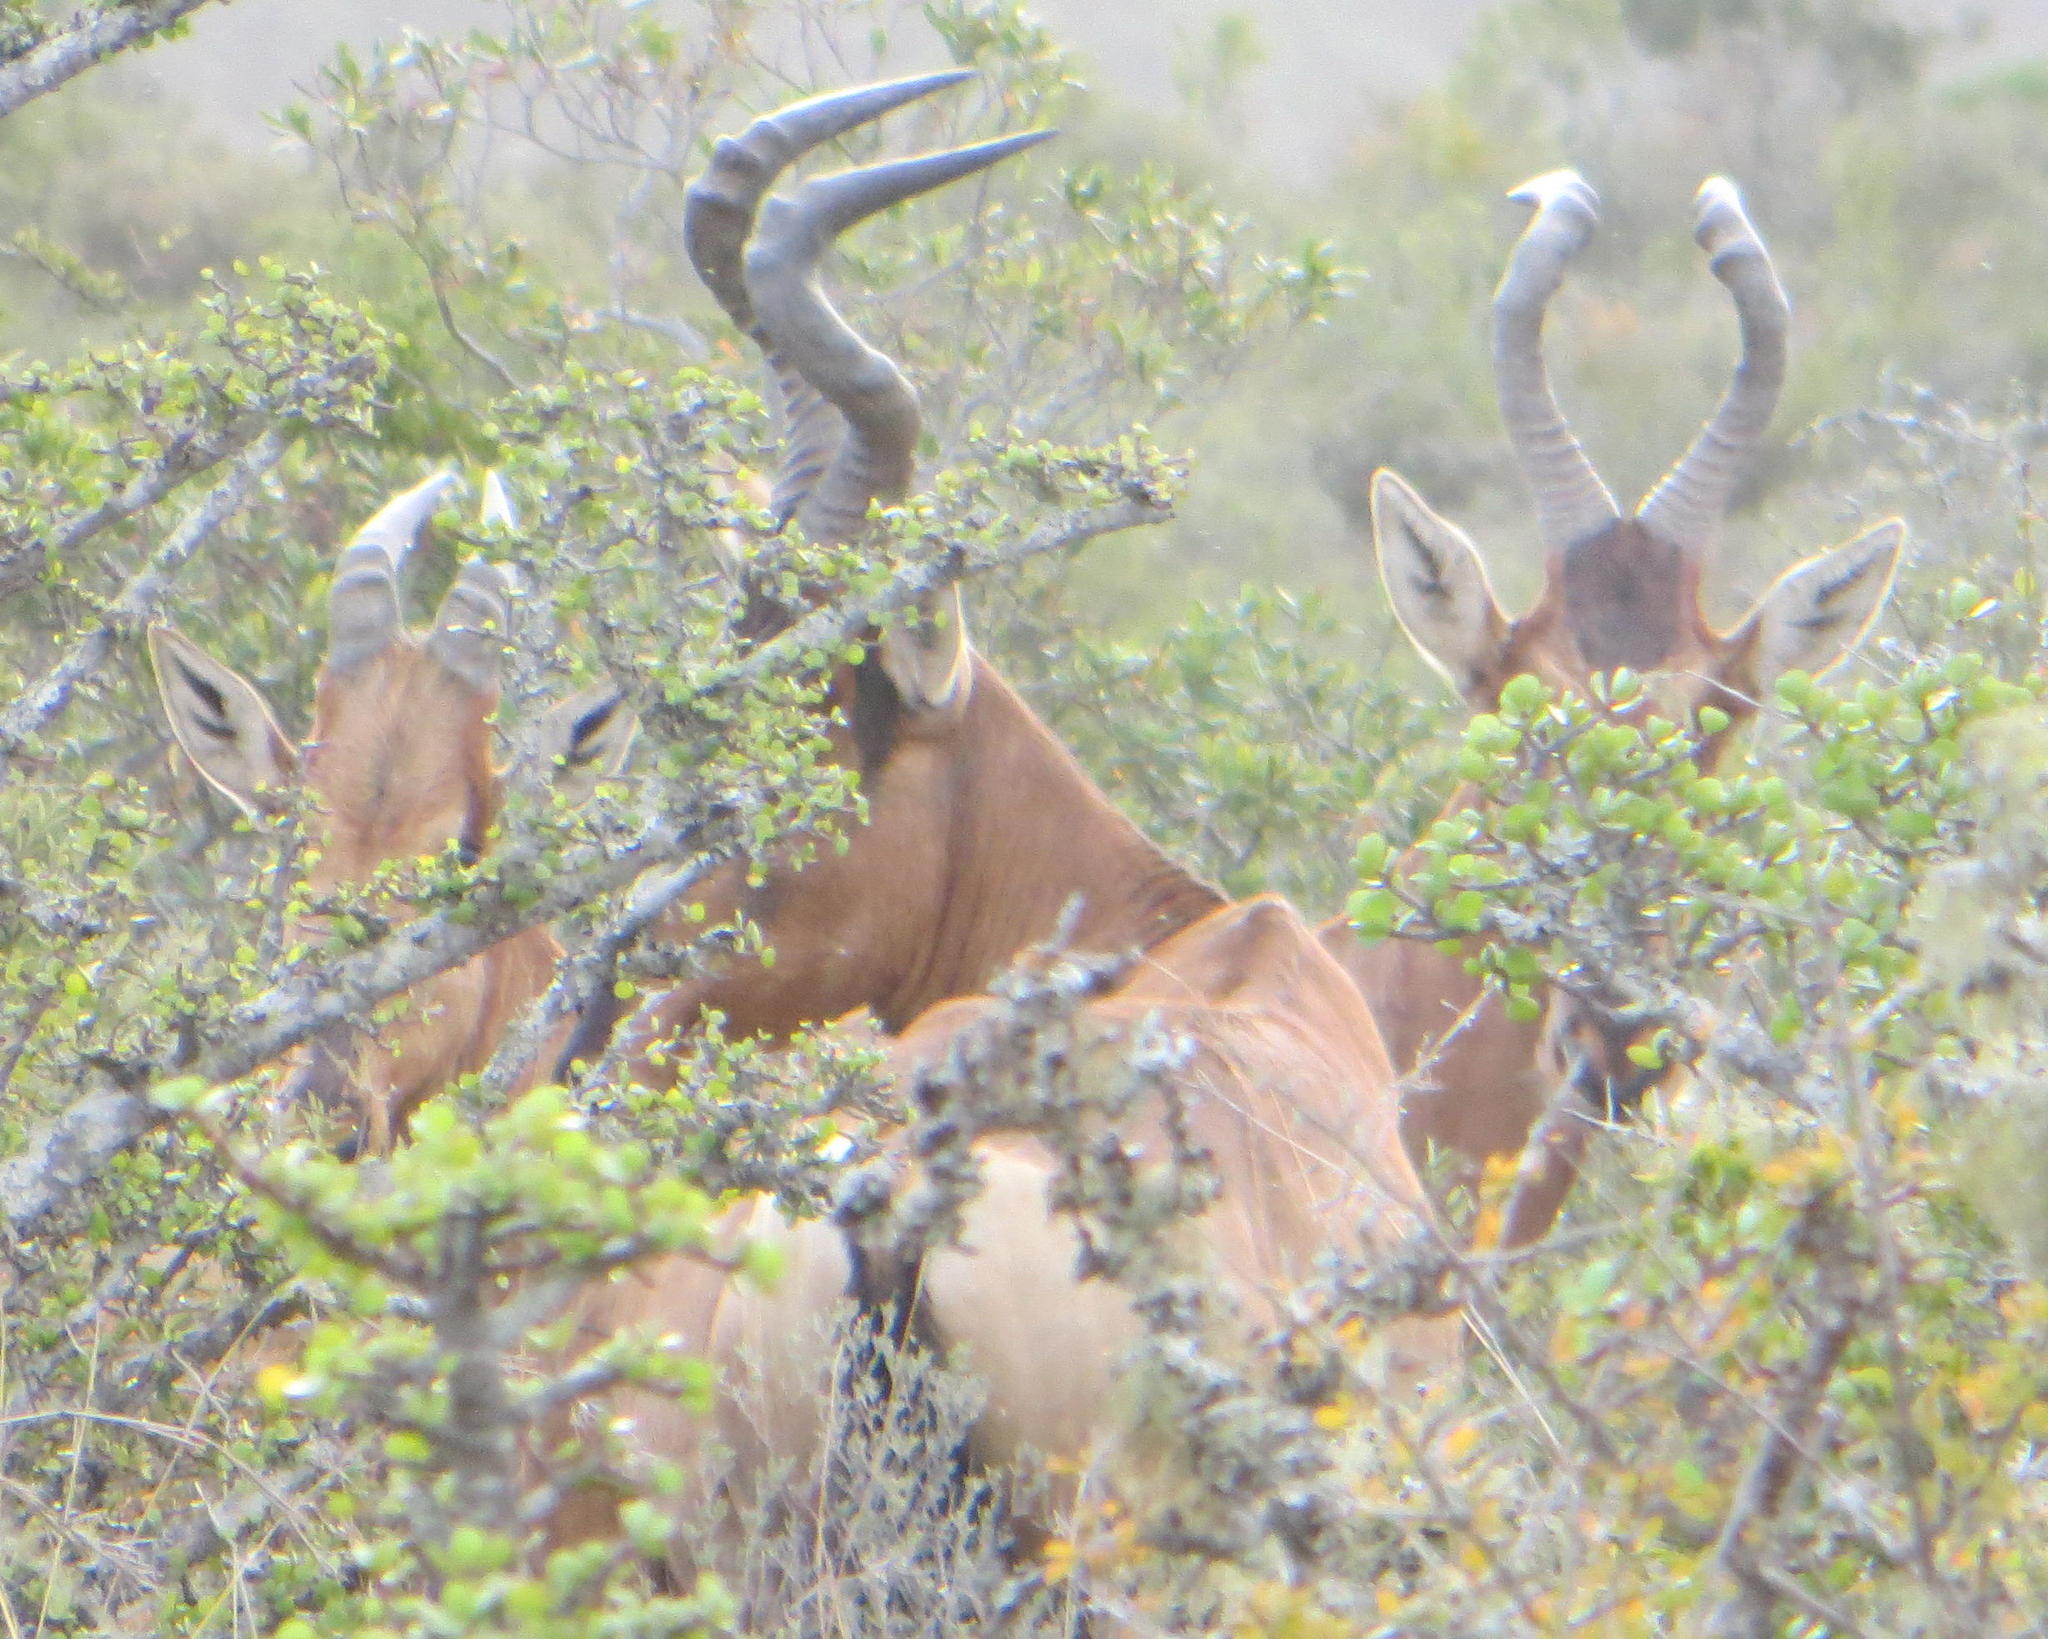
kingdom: Animalia
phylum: Chordata
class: Mammalia
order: Artiodactyla
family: Bovidae
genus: Alcelaphus
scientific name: Alcelaphus caama
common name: Red hartebeest
